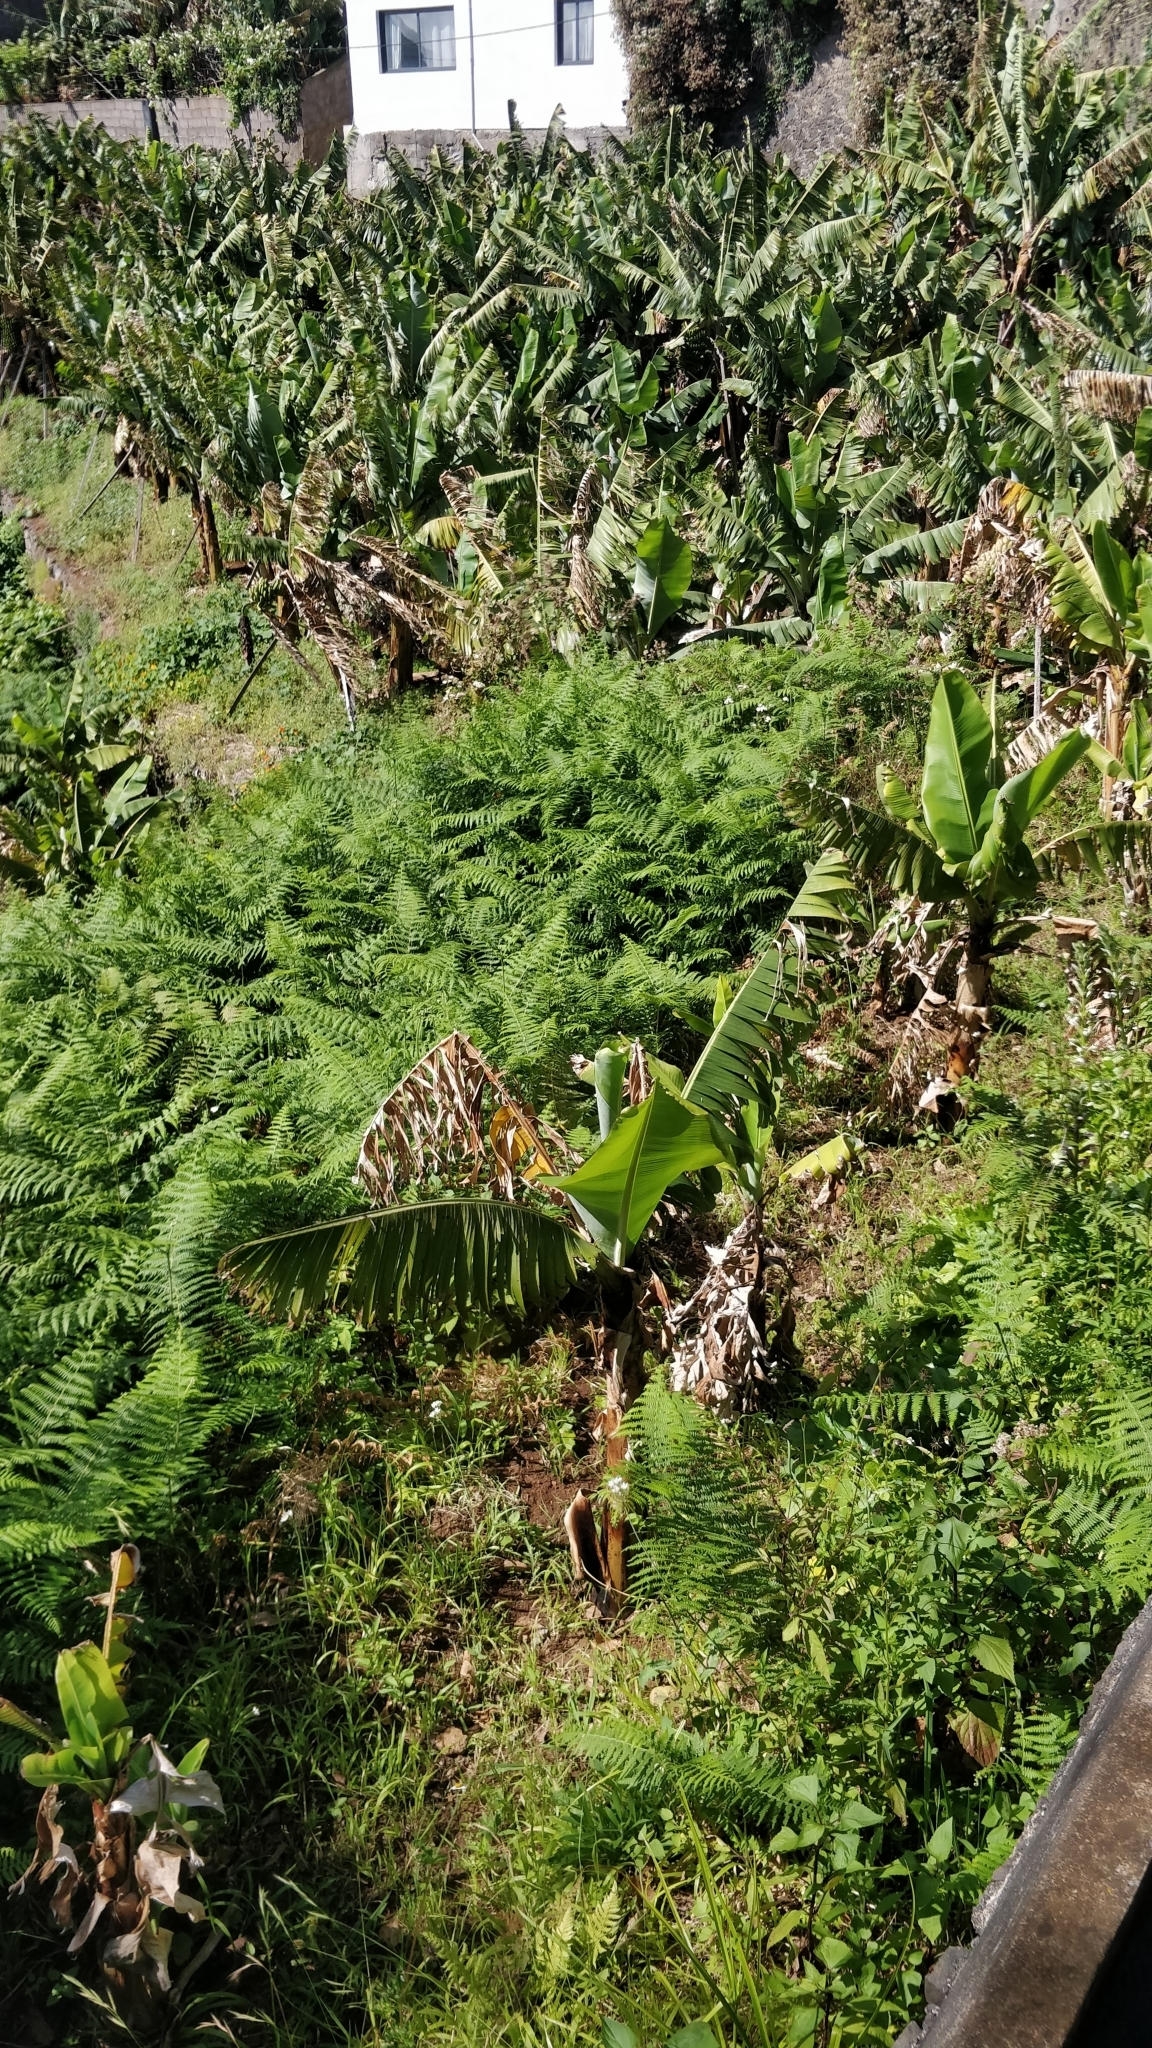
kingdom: Plantae
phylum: Tracheophyta
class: Polypodiopsida
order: Polypodiales
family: Dennstaedtiaceae
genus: Pteridium
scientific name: Pteridium aquilinum
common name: Bracken
